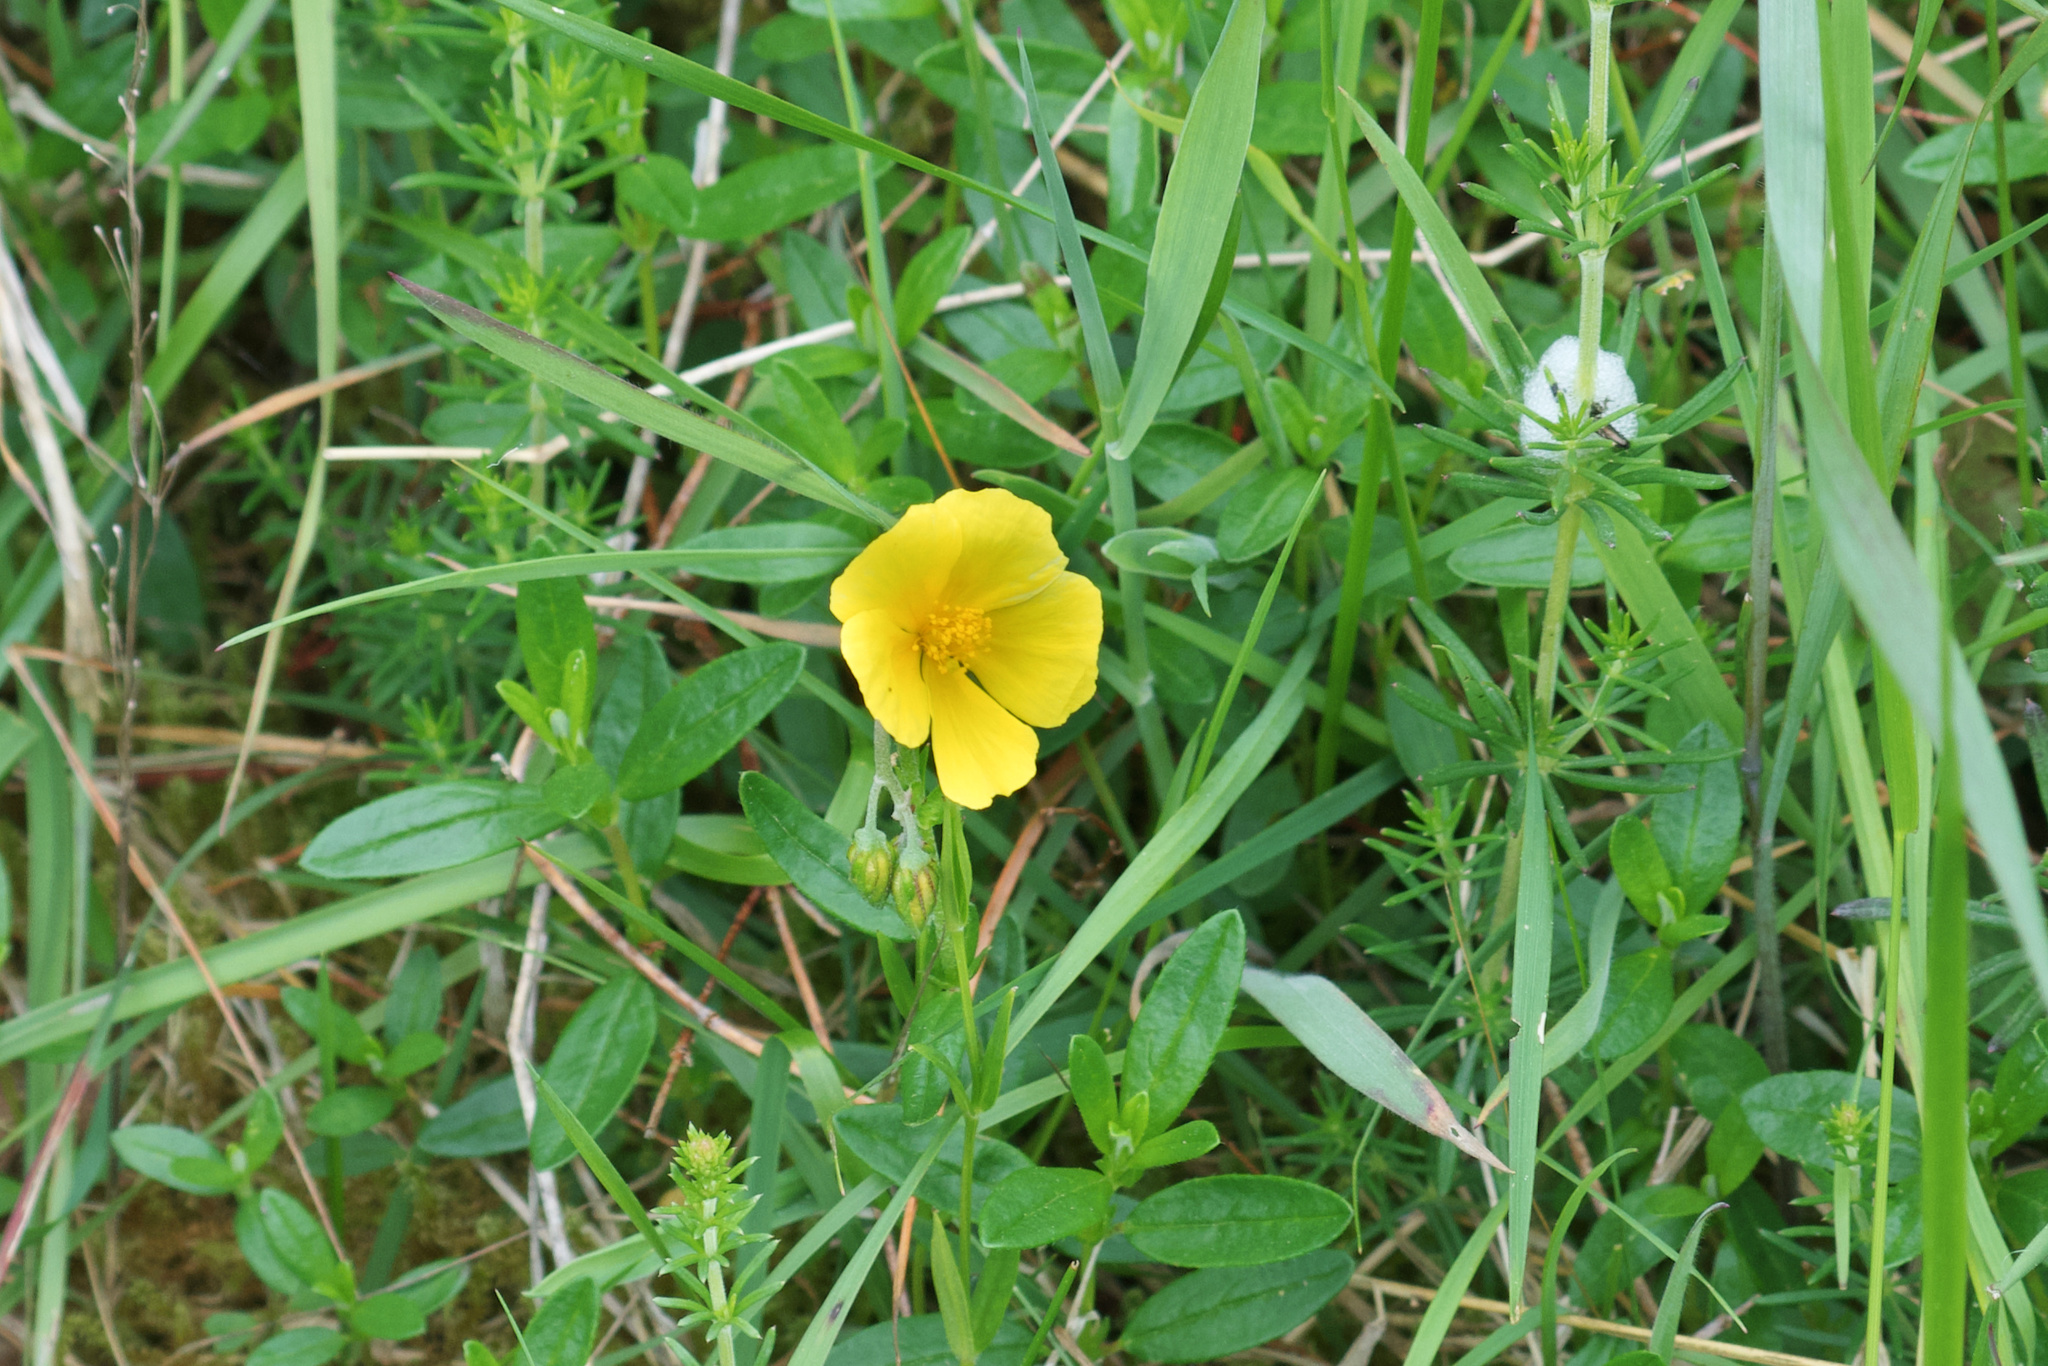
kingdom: Plantae
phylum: Tracheophyta
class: Magnoliopsida
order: Malvales
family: Cistaceae
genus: Helianthemum
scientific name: Helianthemum nummularium
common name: Common rock-rose
